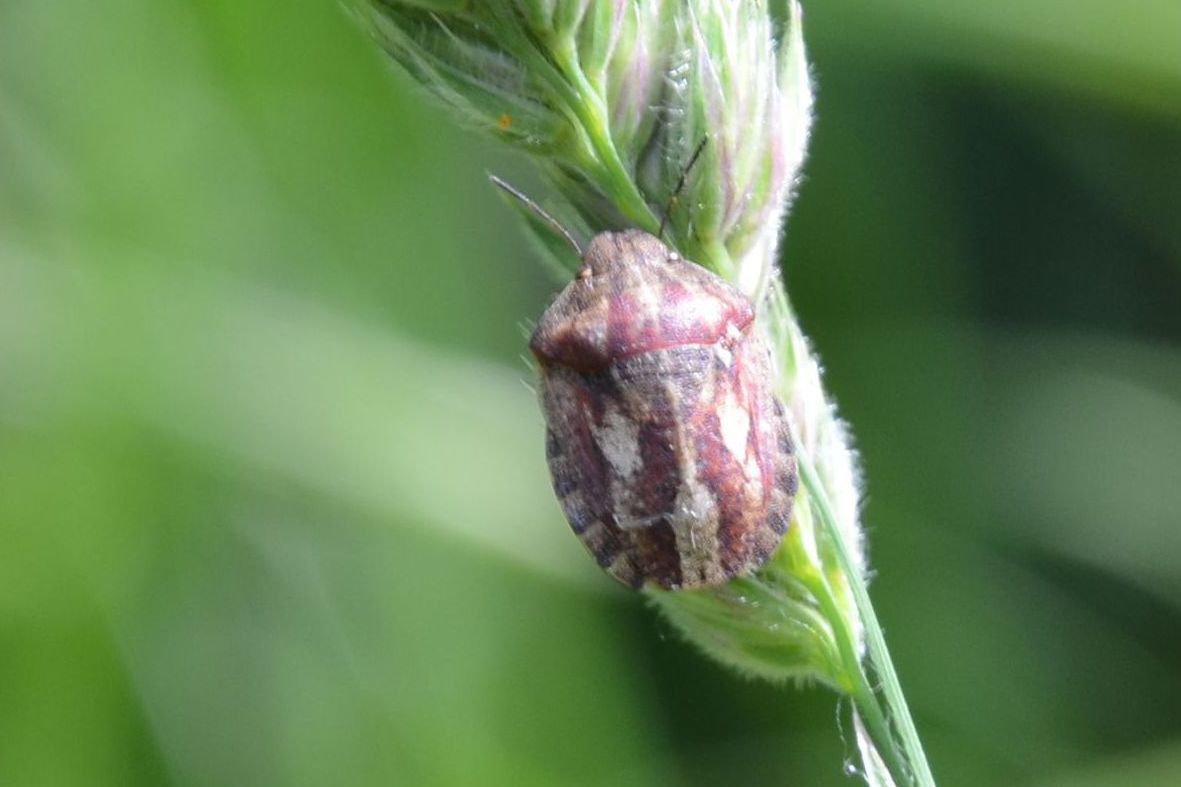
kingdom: Animalia
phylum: Arthropoda
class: Insecta
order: Hemiptera
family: Scutelleridae
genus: Eurygaster
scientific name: Eurygaster testudinaria
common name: Tortoise bug
